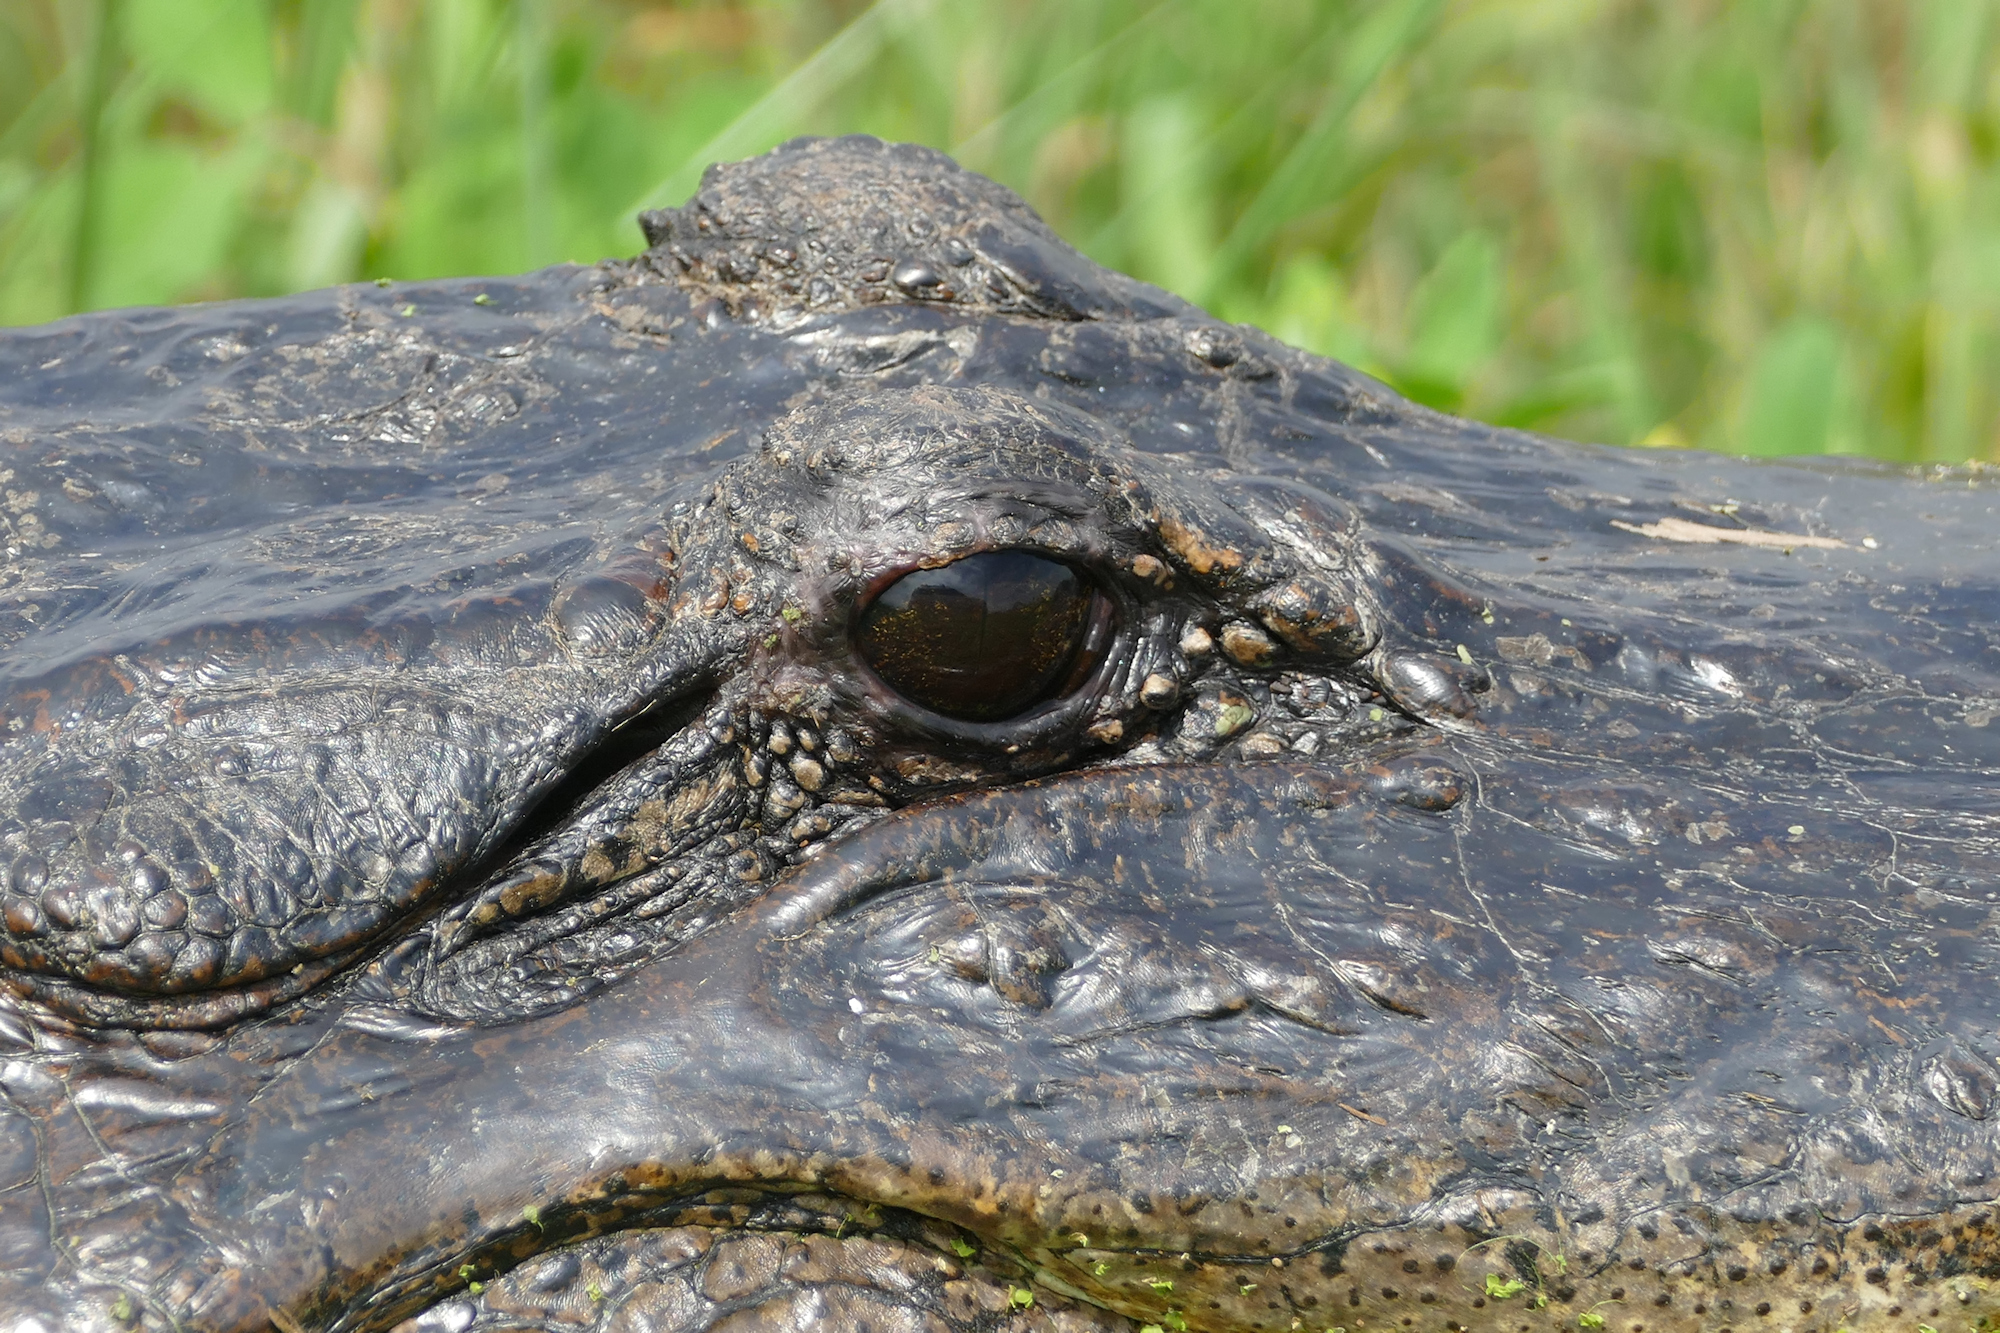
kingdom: Animalia
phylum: Chordata
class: Crocodylia
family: Alligatoridae
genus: Alligator
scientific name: Alligator mississippiensis
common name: American alligator
